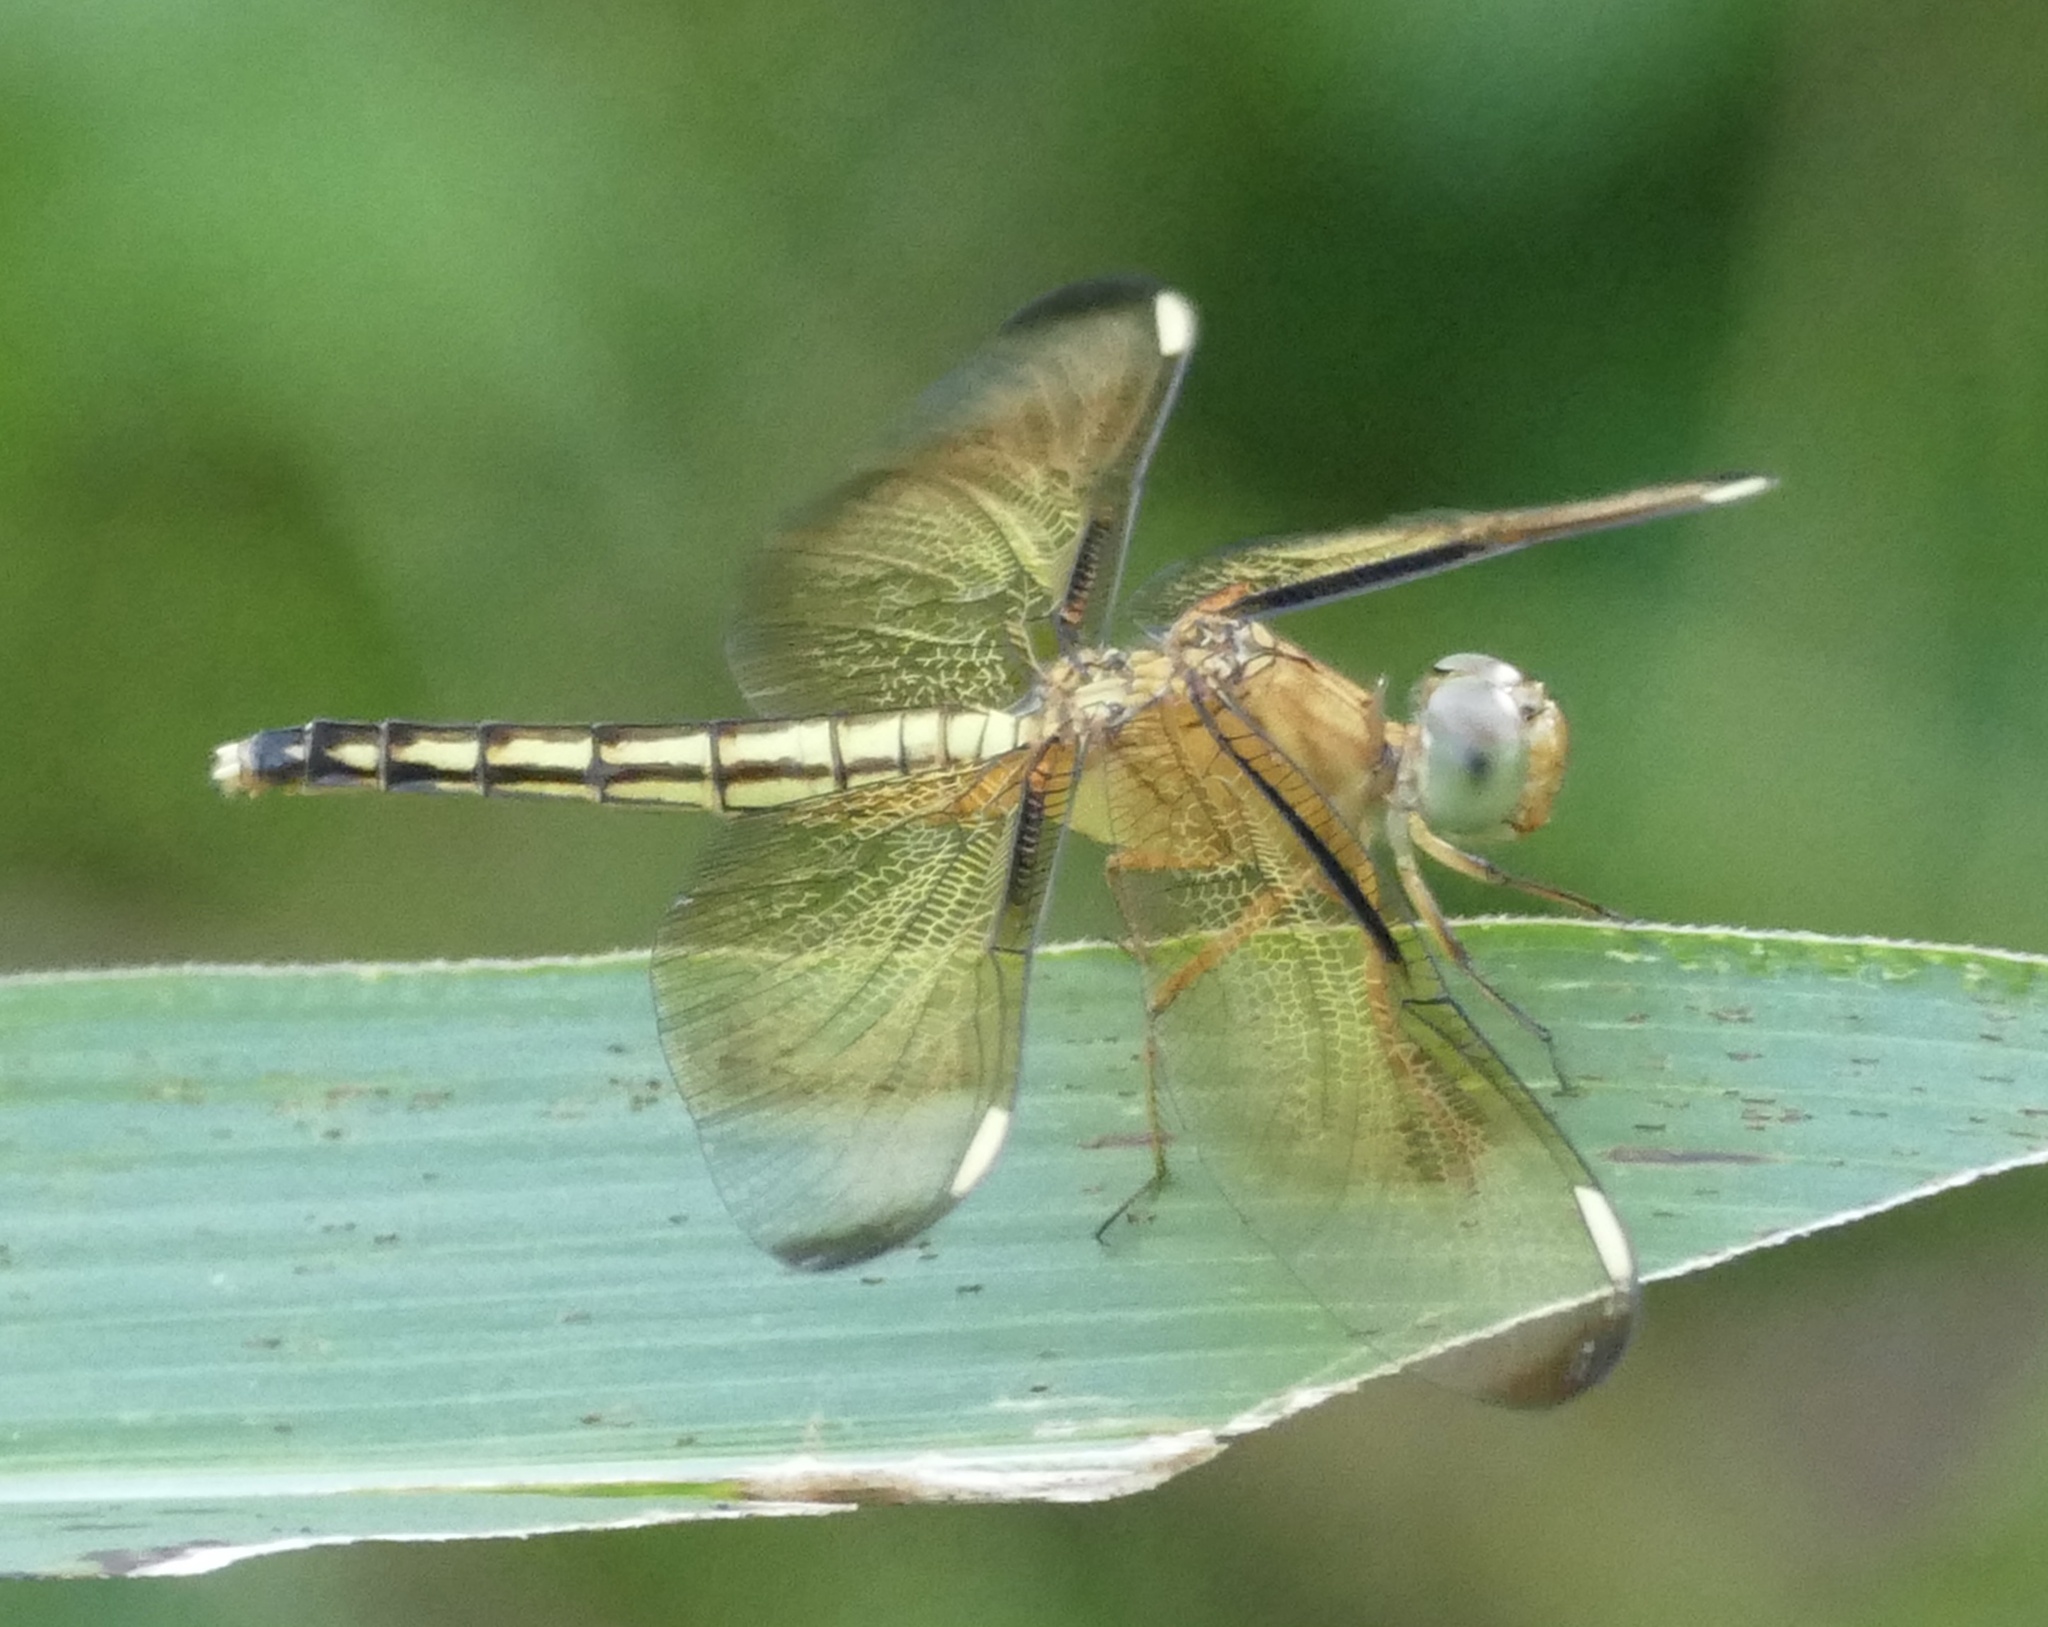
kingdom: Animalia
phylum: Arthropoda
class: Insecta
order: Odonata
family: Libellulidae
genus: Neurothemis
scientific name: Neurothemis manadensis
